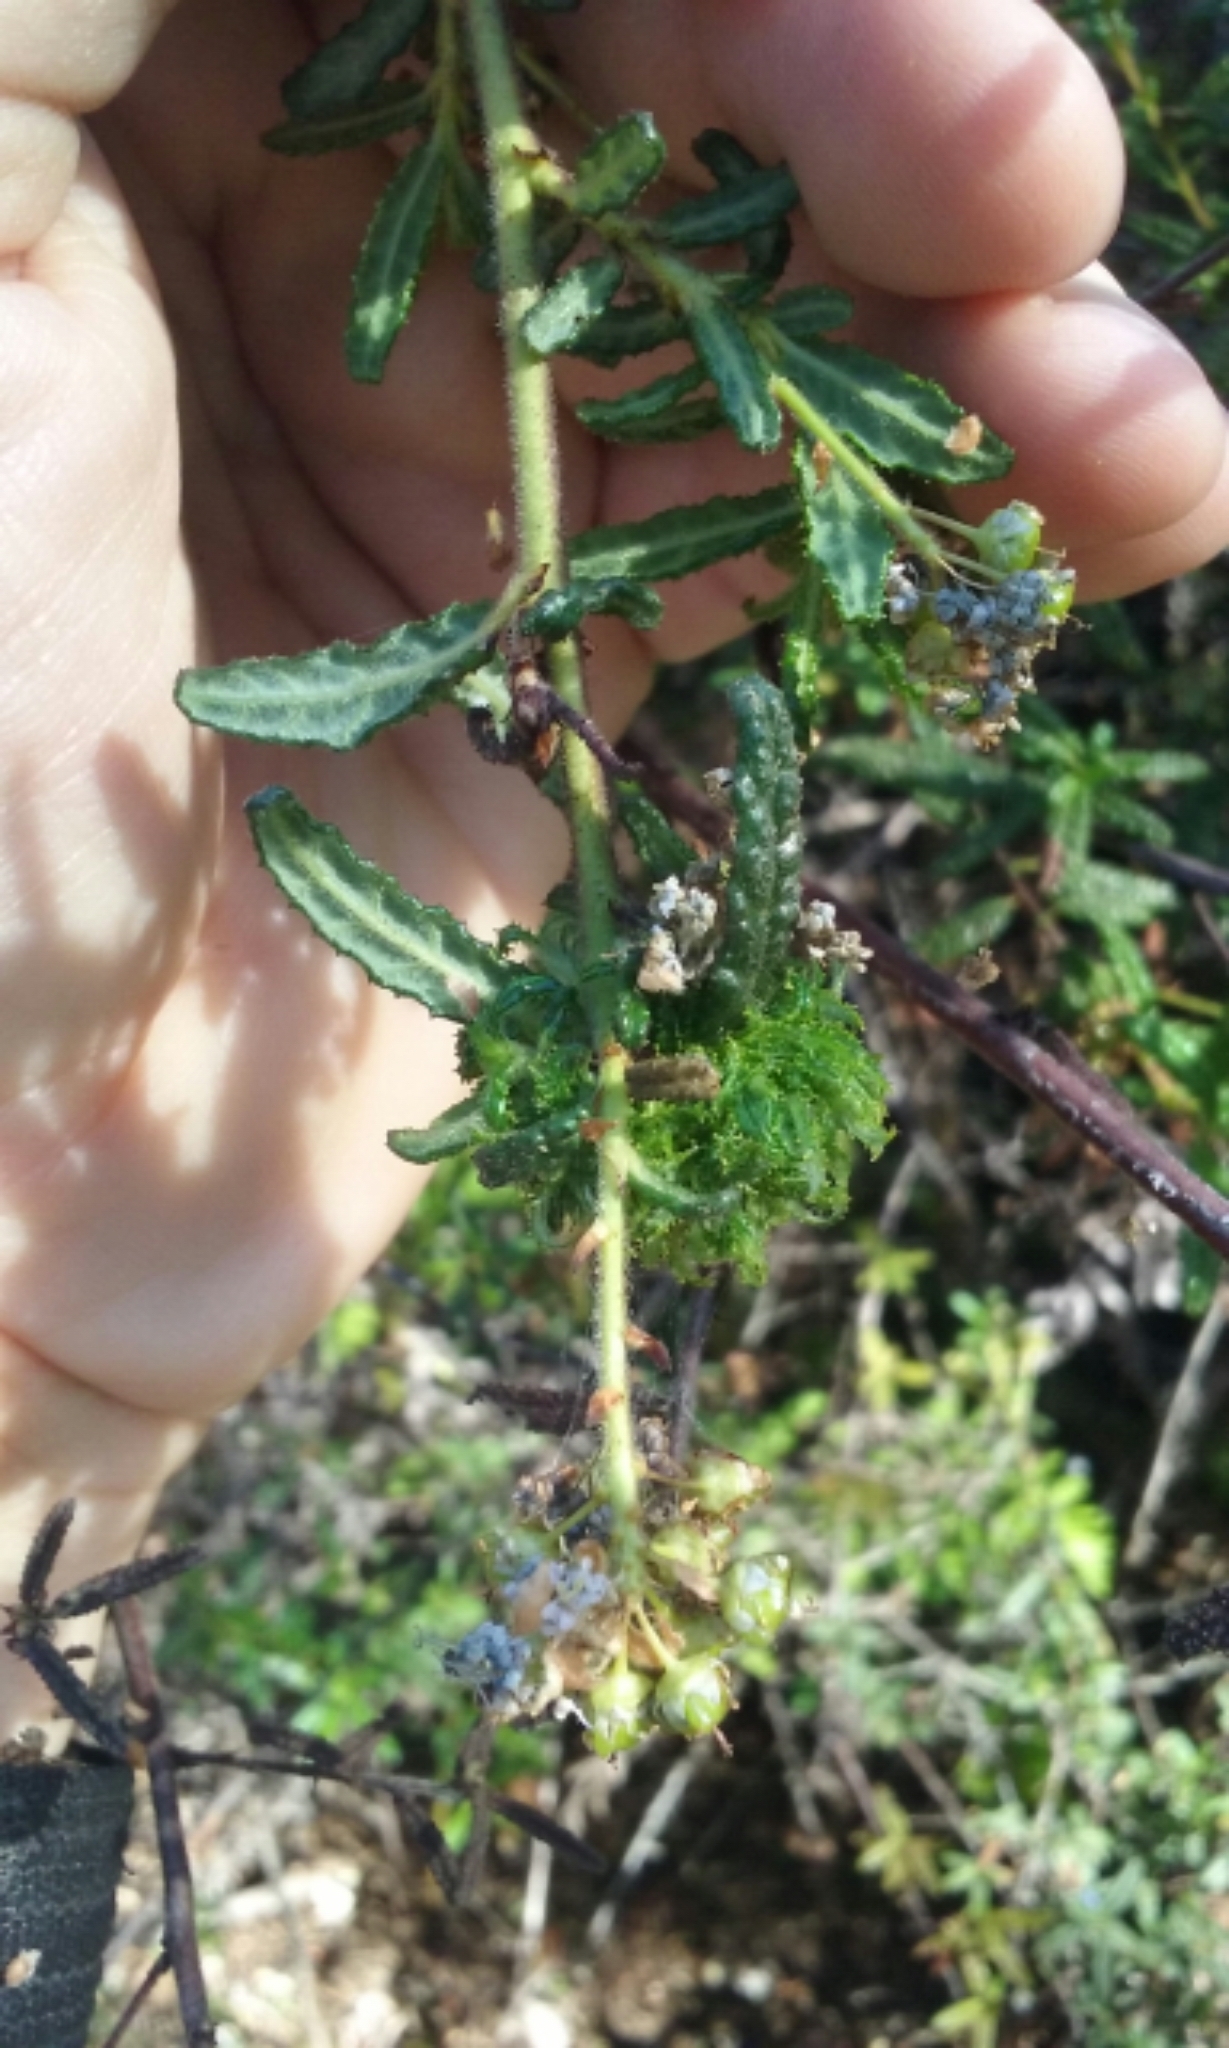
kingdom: Animalia
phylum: Arthropoda
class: Insecta
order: Diptera
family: Cecidomyiidae
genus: Asphondylia
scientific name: Asphondylia ceanothi
